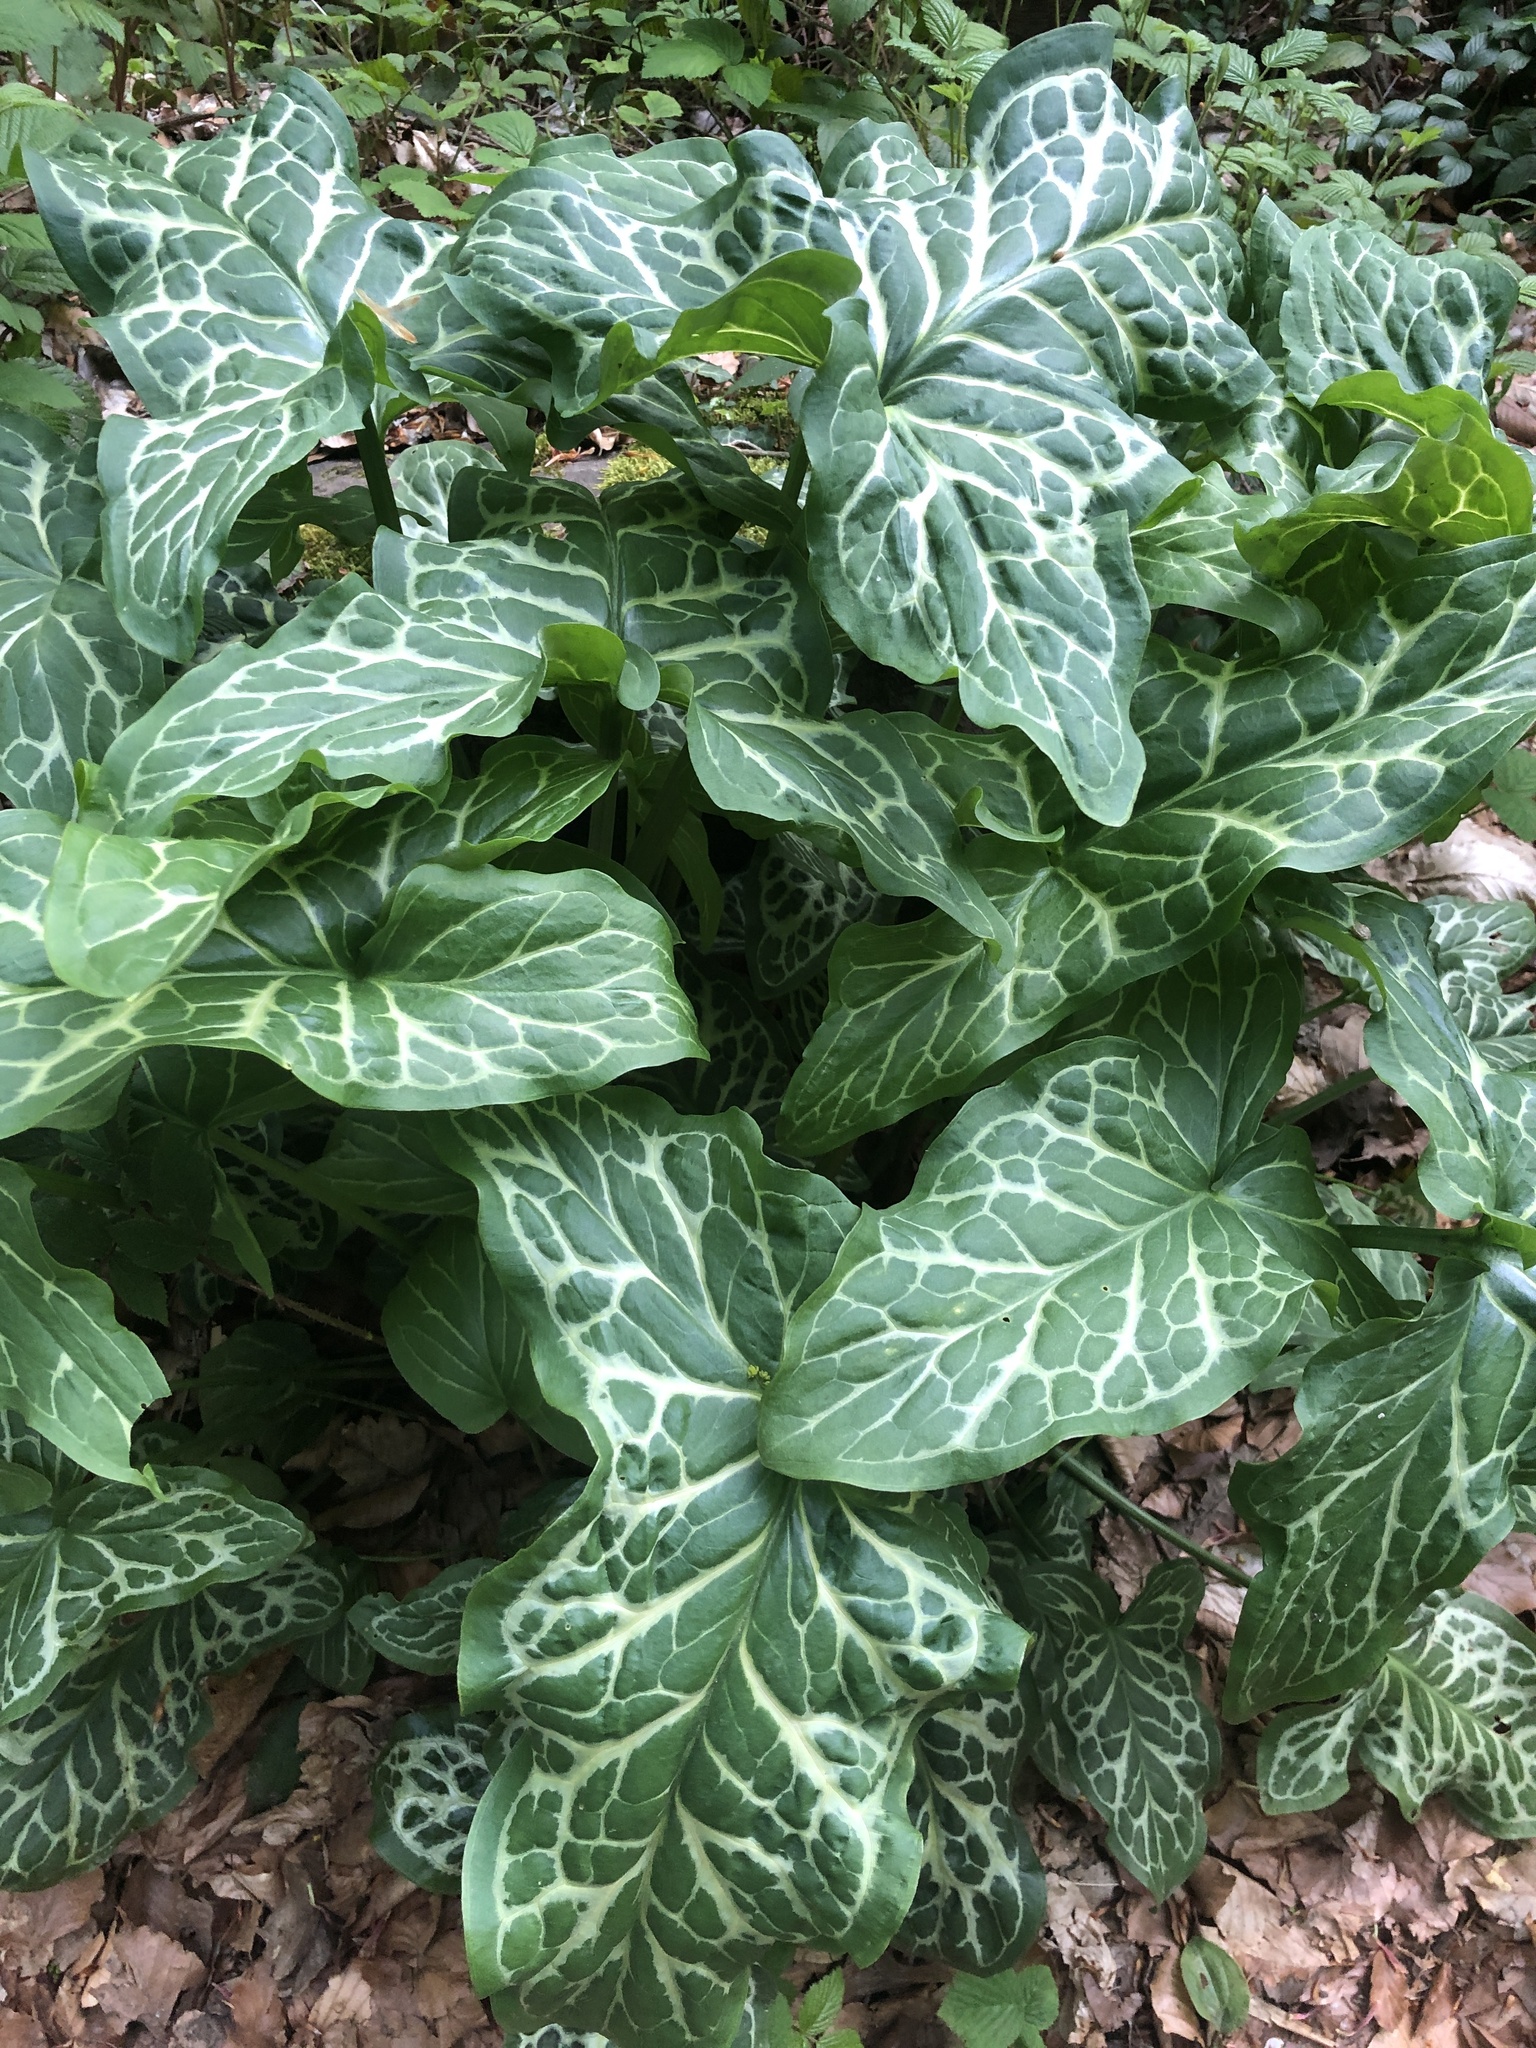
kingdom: Plantae
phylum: Tracheophyta
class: Liliopsida
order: Alismatales
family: Araceae
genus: Arum
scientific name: Arum italicum
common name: Italian lords-and-ladies
